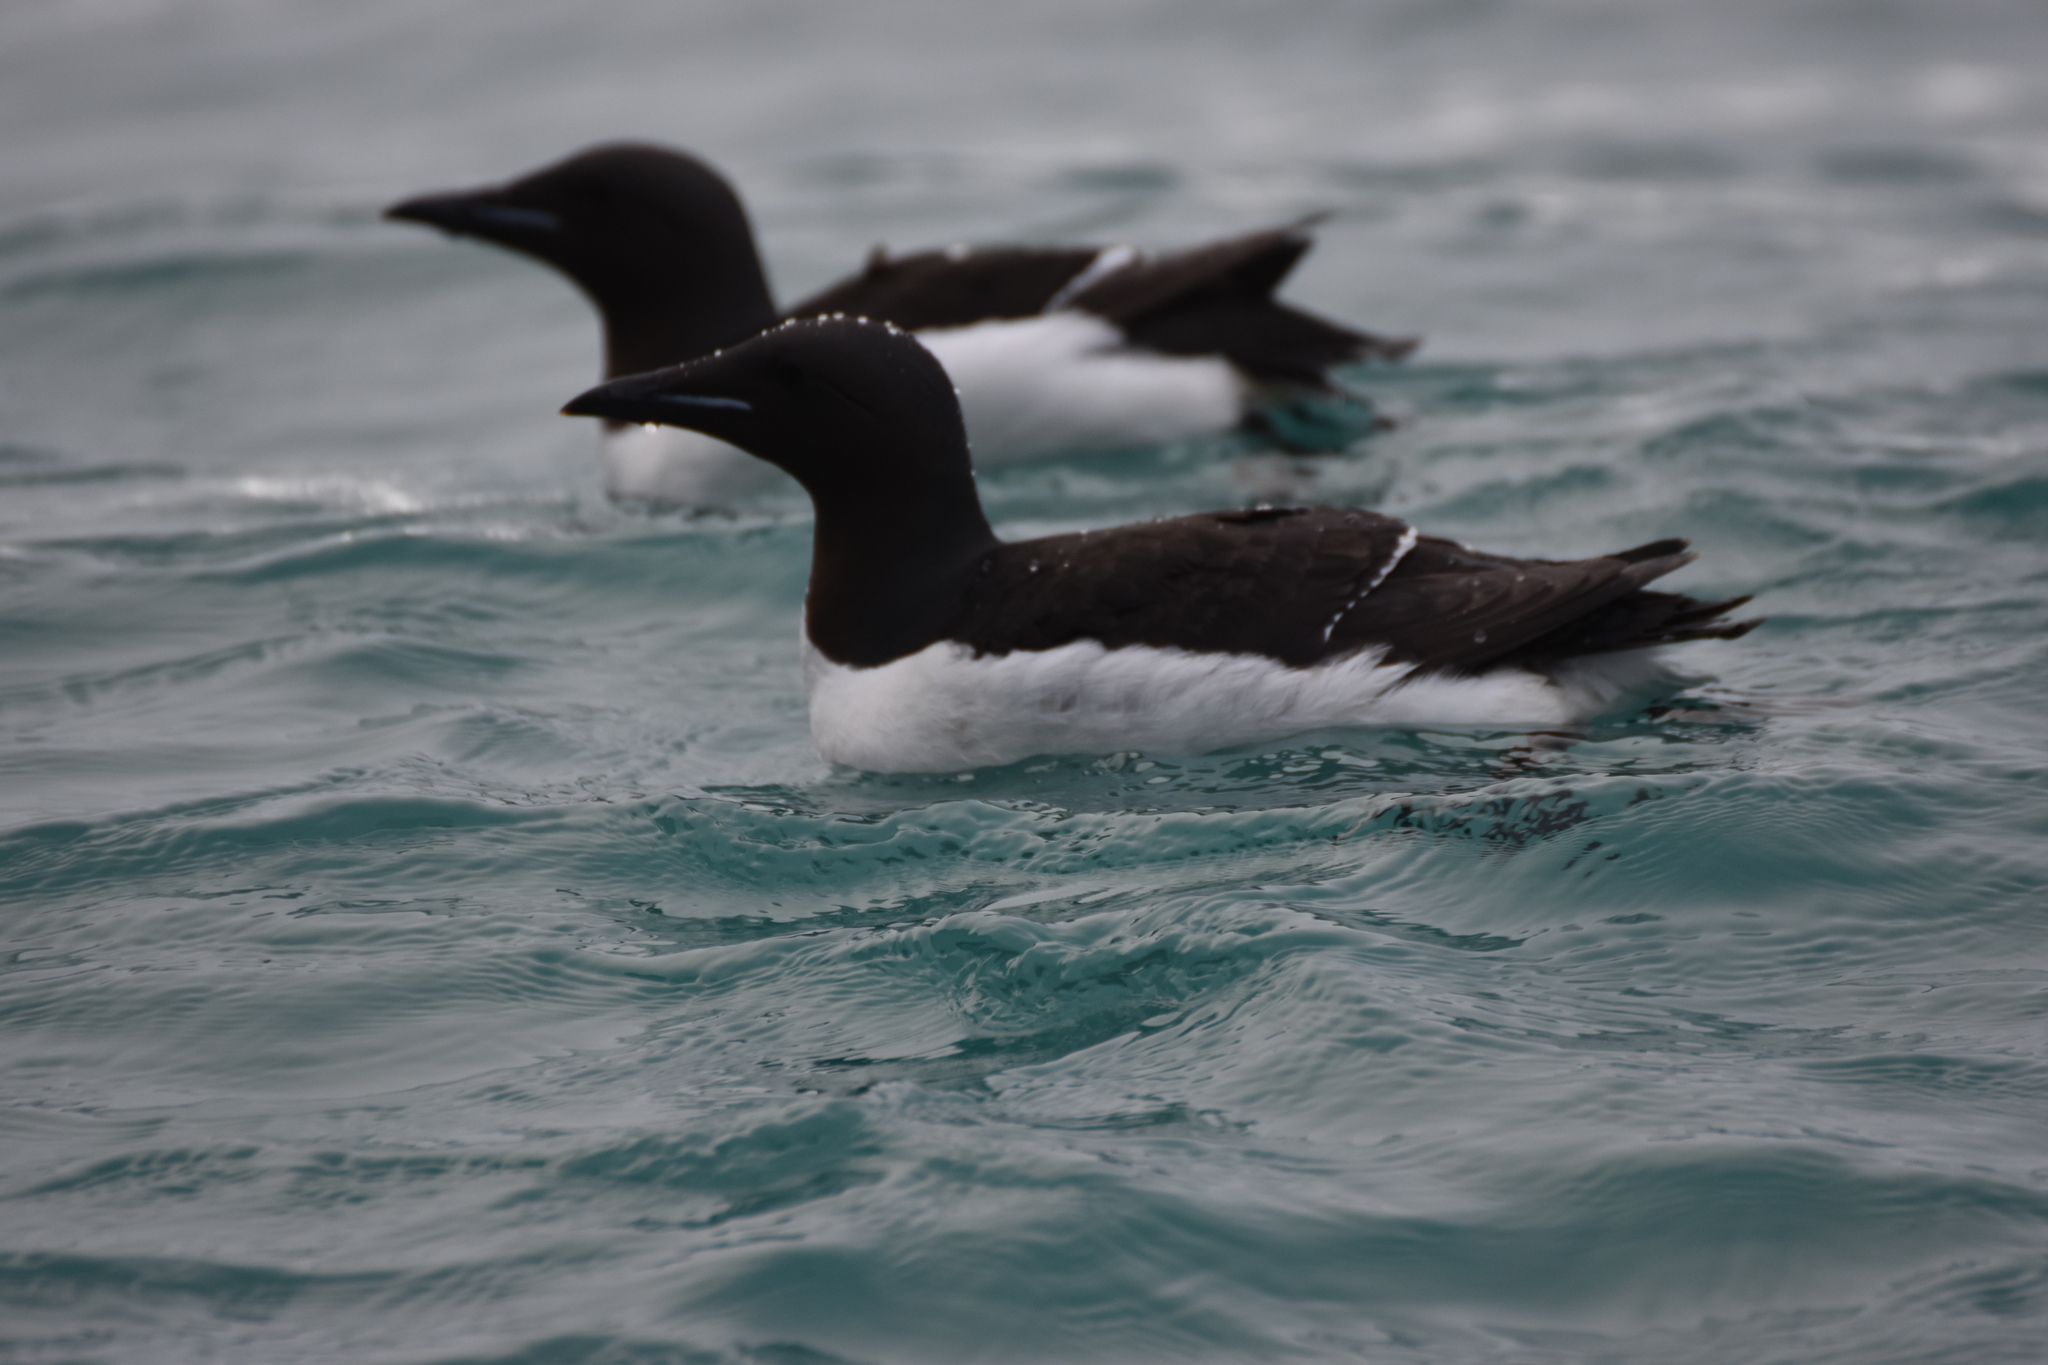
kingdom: Animalia
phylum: Chordata
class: Aves
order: Charadriiformes
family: Alcidae
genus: Uria
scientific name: Uria lomvia
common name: Thick-billed murre
